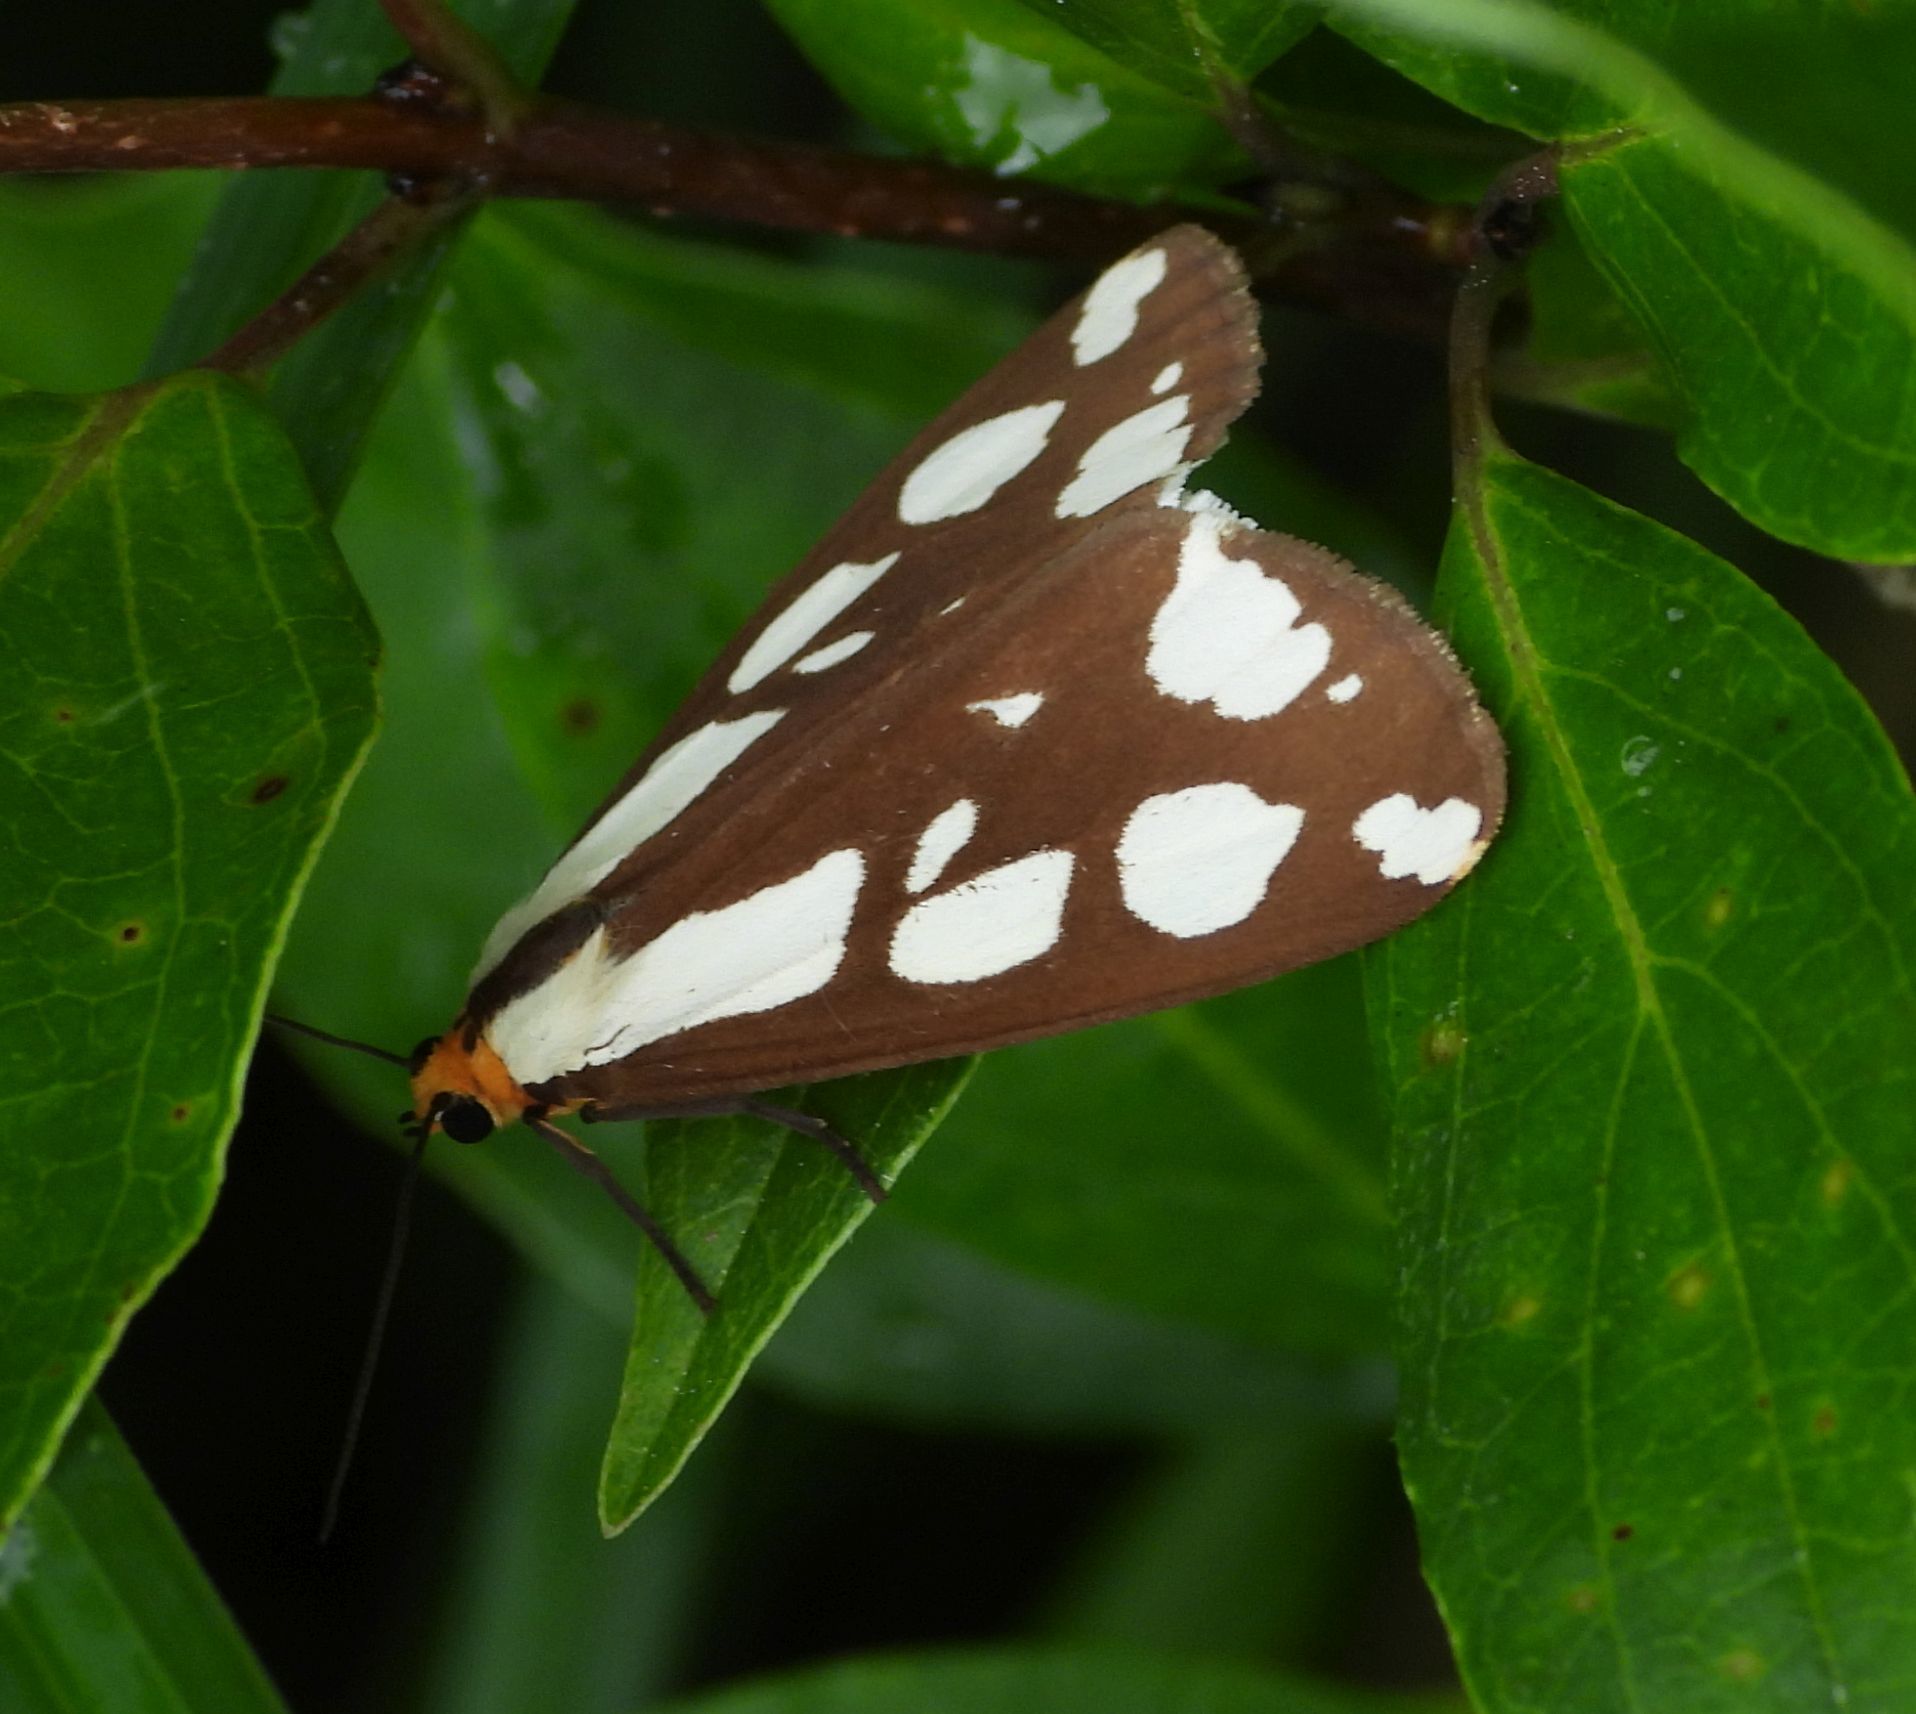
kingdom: Animalia
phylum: Arthropoda
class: Insecta
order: Lepidoptera
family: Erebidae
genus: Haploa
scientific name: Haploa confusa
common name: Confused haploa moth
